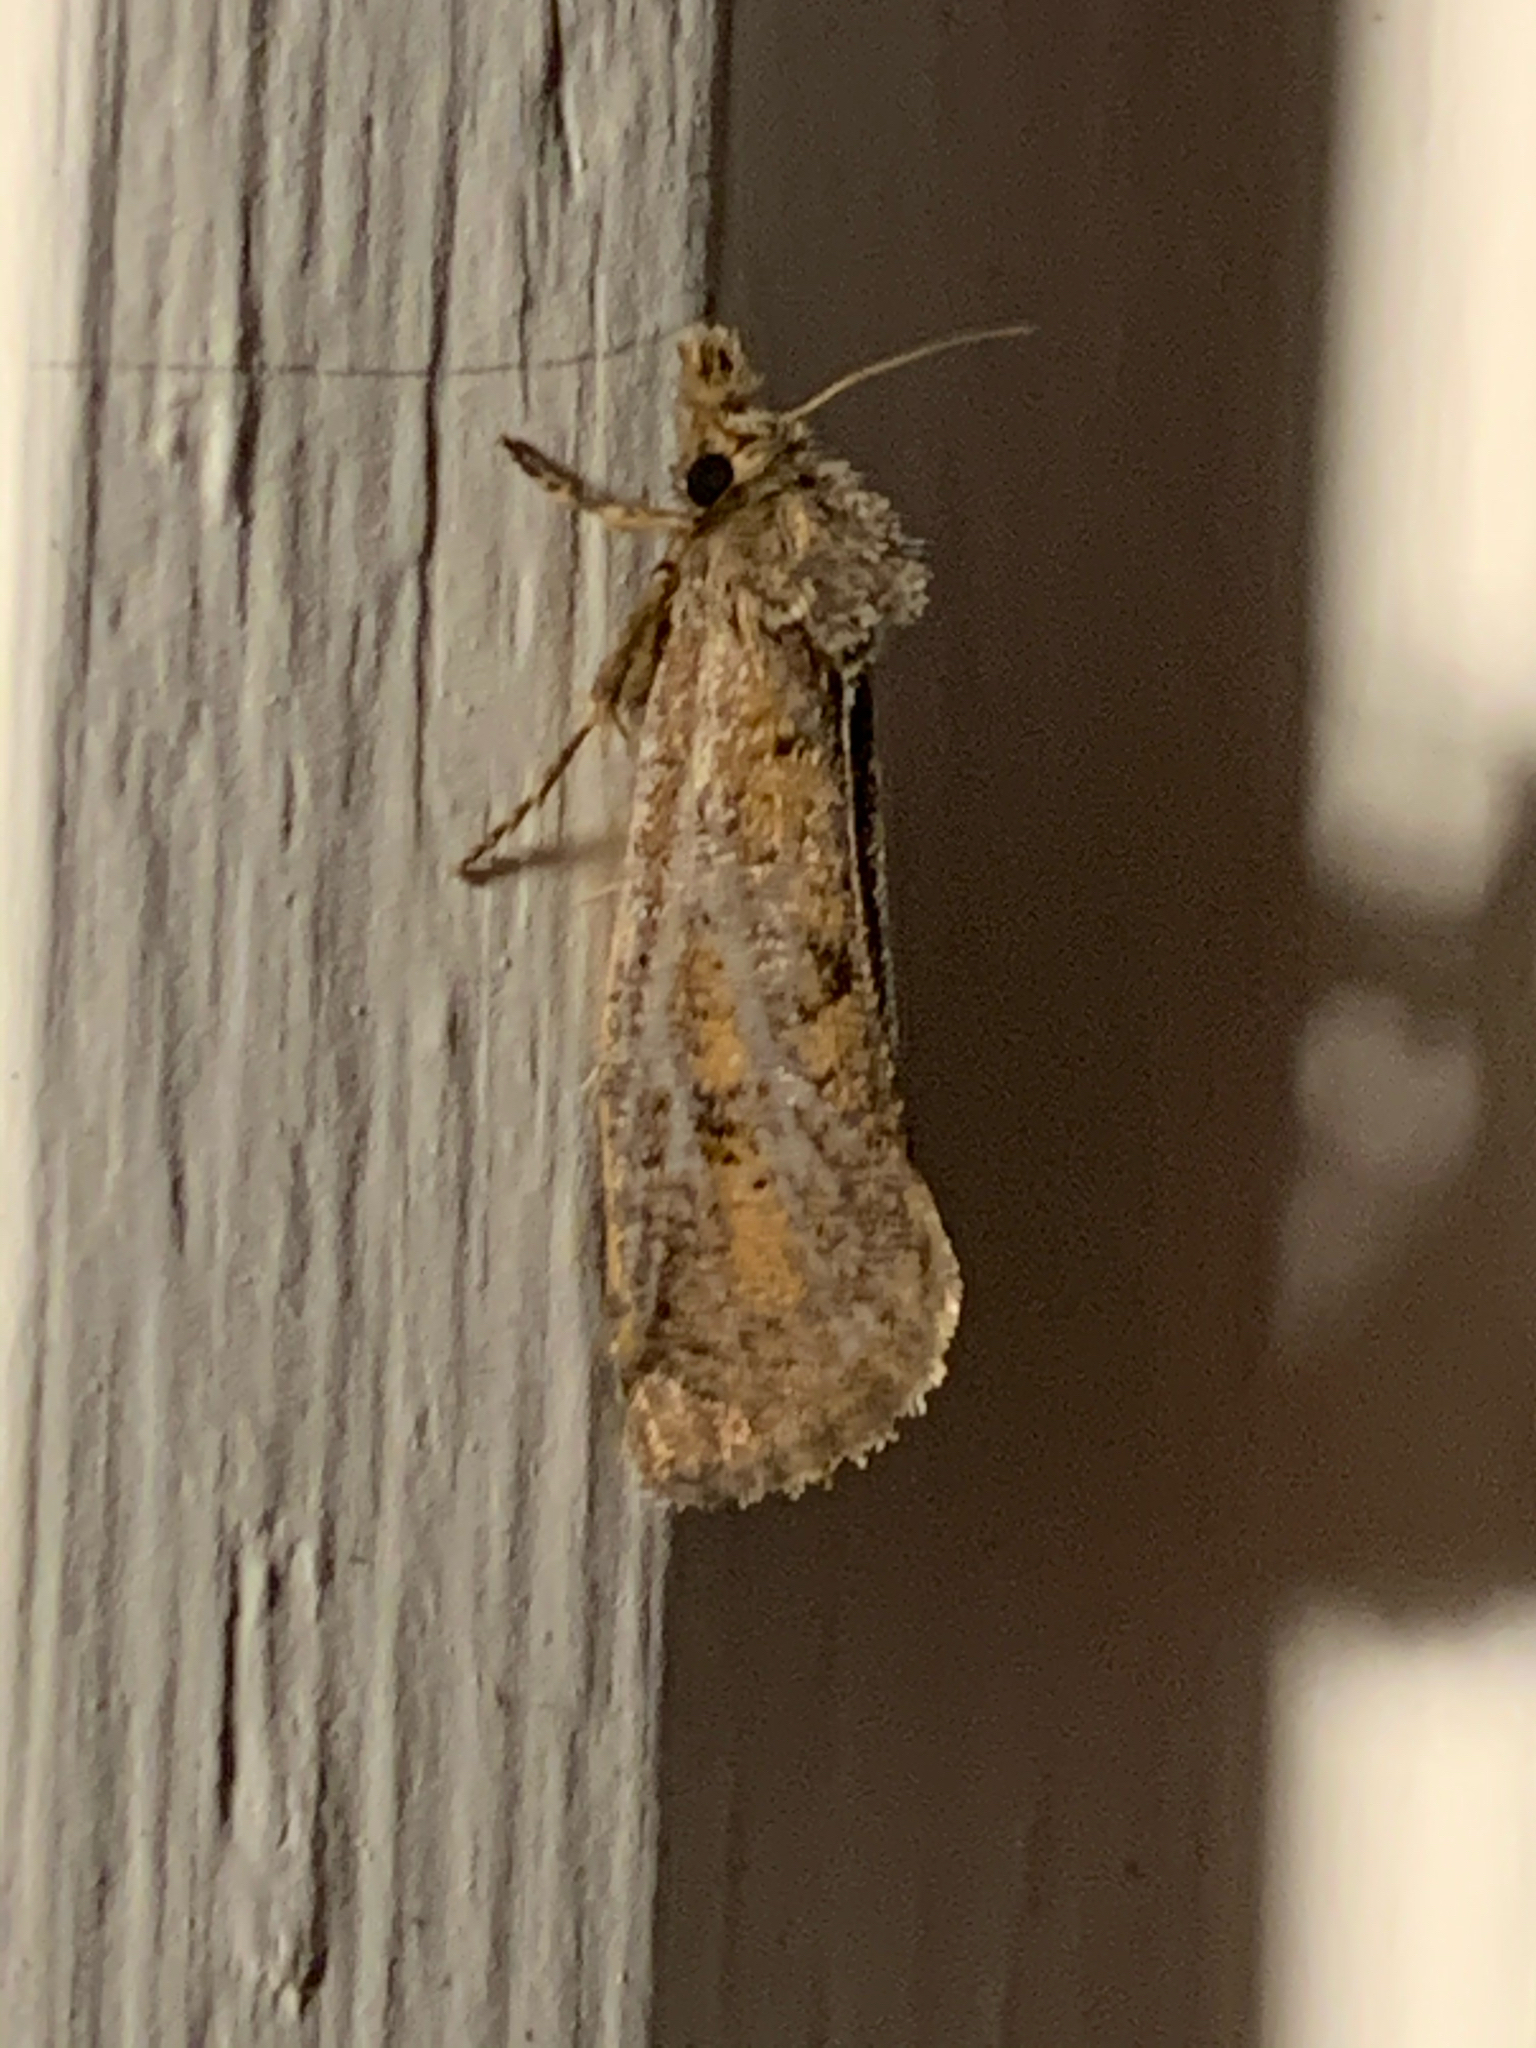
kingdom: Animalia
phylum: Arthropoda
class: Insecta
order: Lepidoptera
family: Tineidae
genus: Acrolophus
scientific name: Acrolophus popeanella
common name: Clemens' grass tubeworm moth
